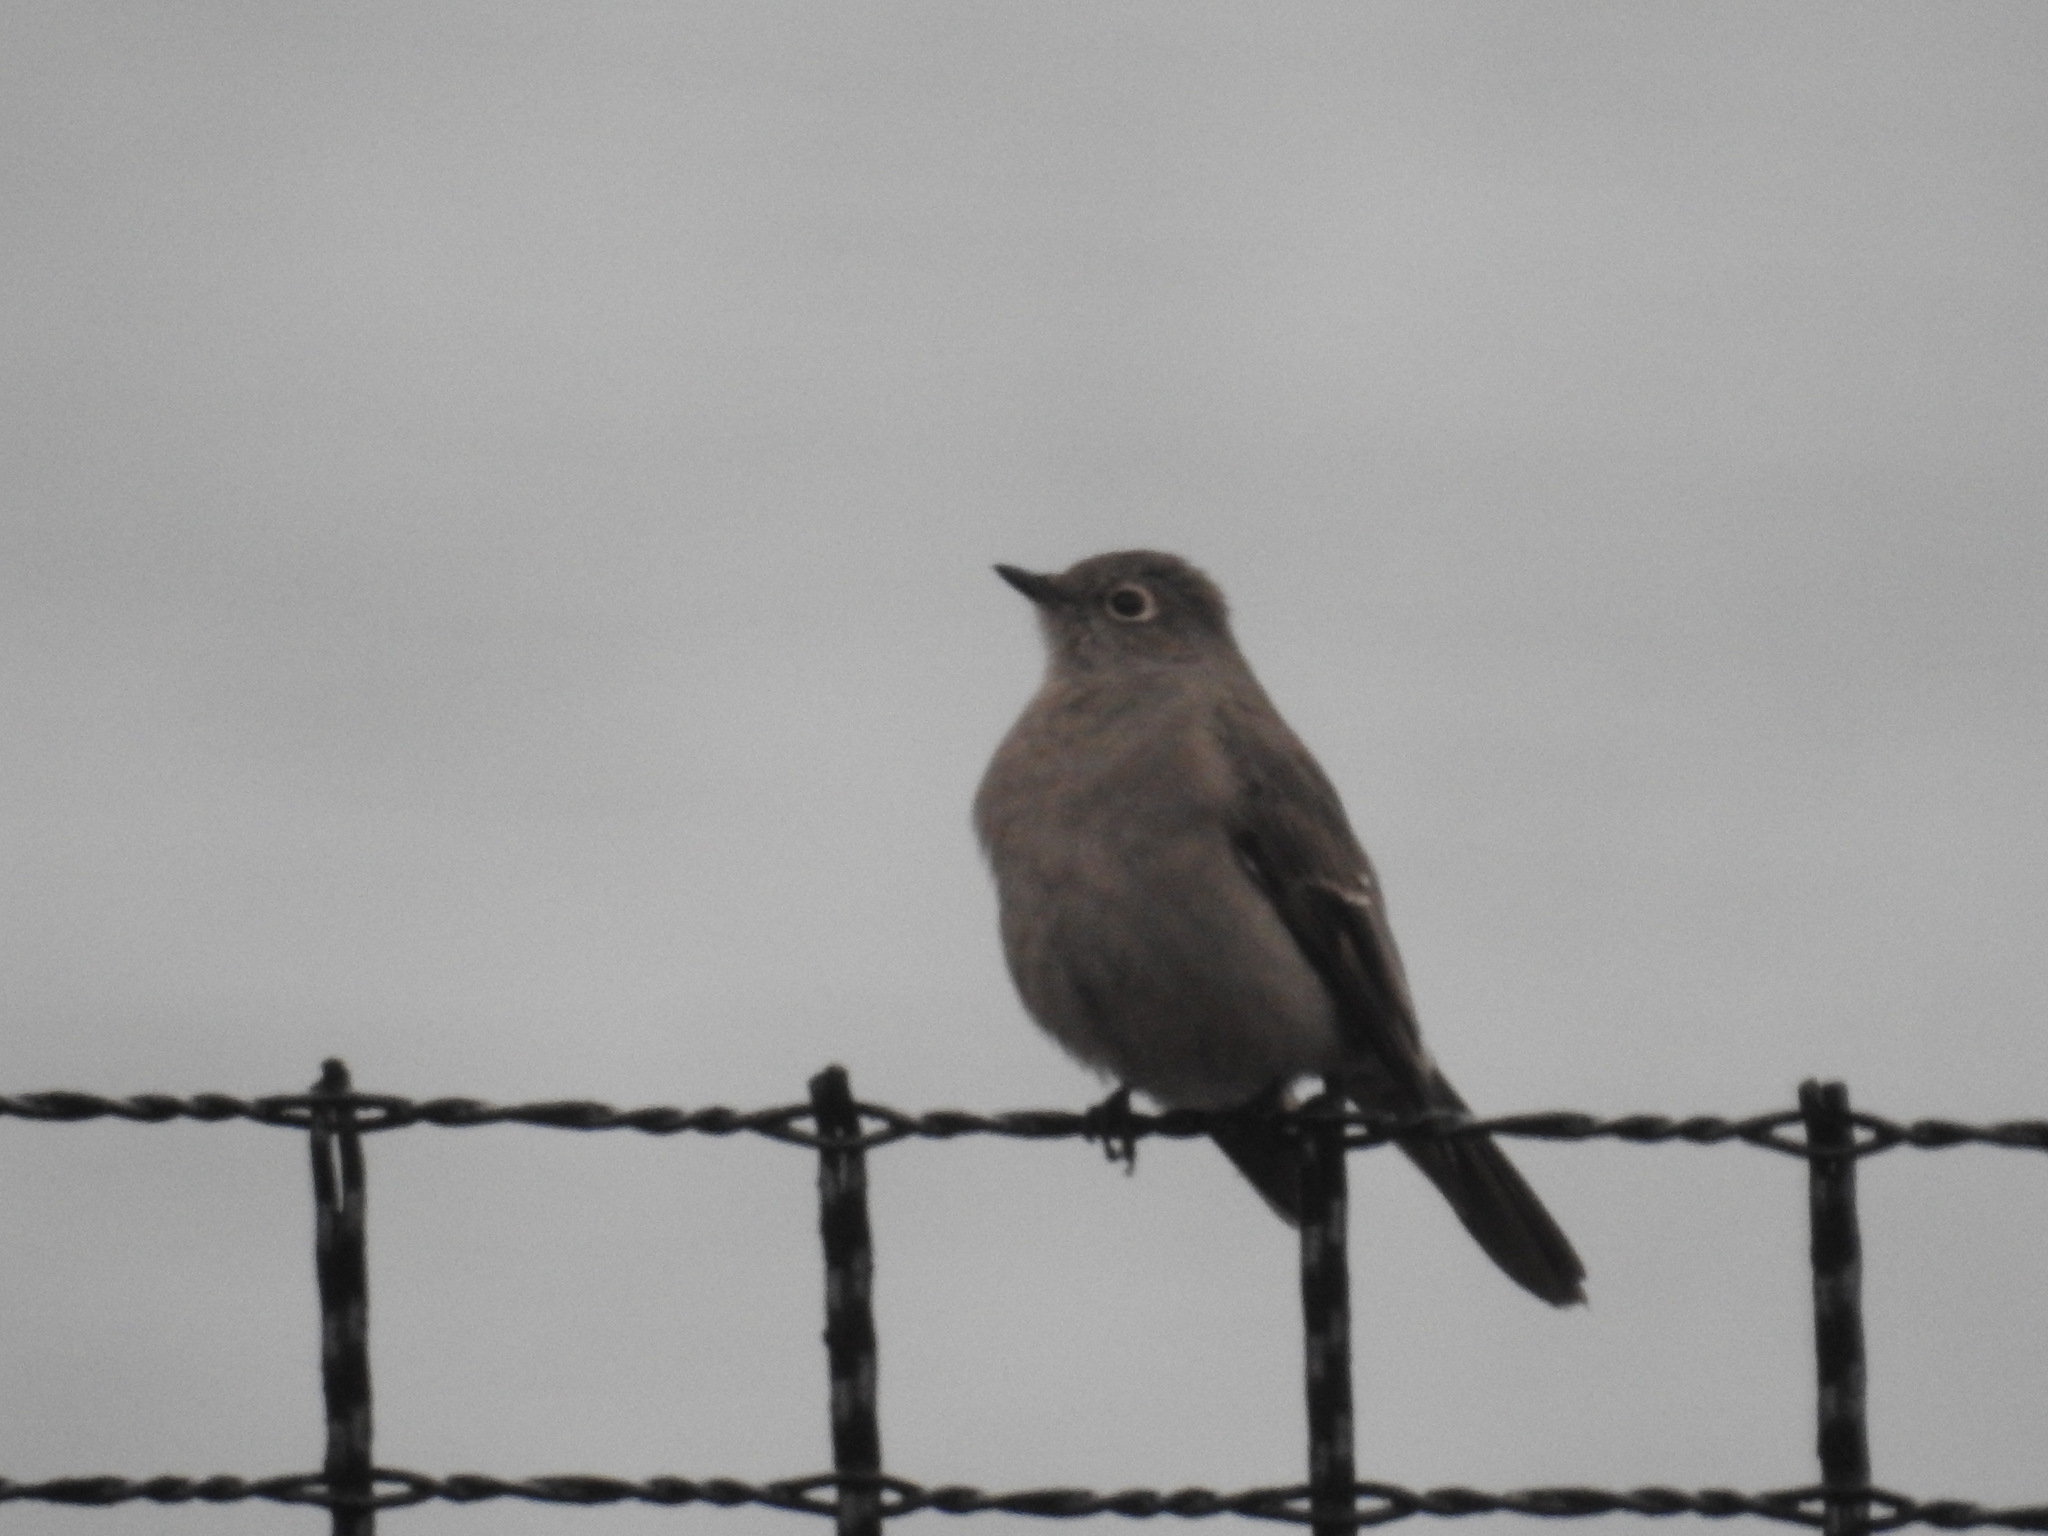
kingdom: Animalia
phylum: Chordata
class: Aves
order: Passeriformes
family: Turdidae
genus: Myadestes
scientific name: Myadestes townsendi
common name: Townsend's solitaire
